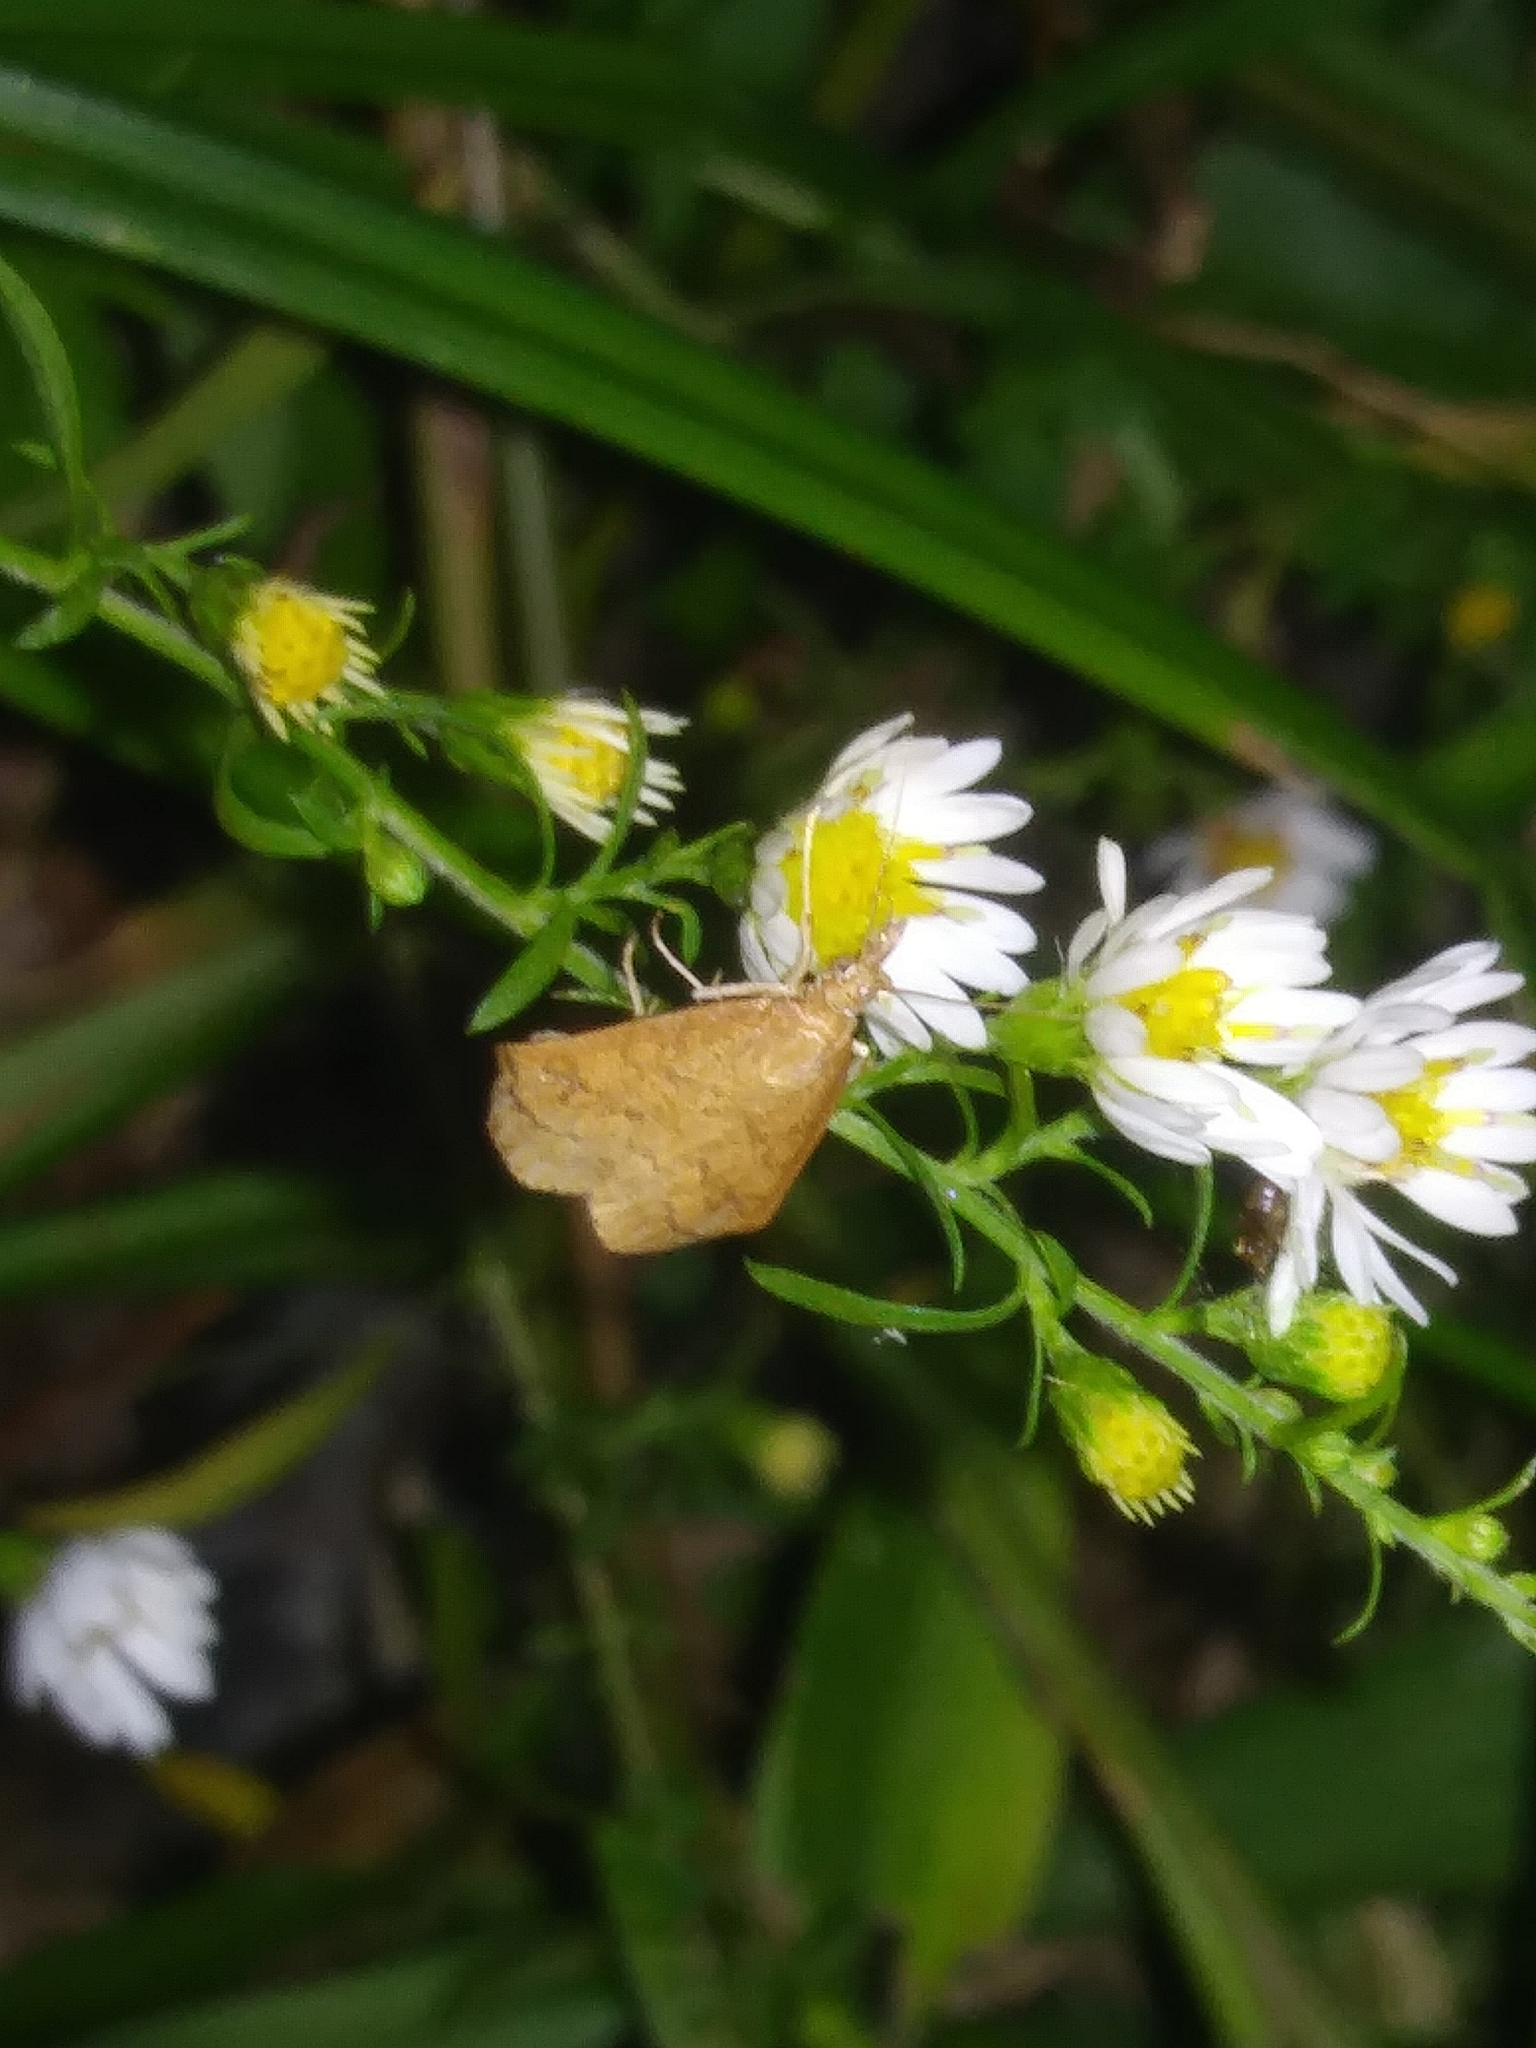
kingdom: Animalia
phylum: Arthropoda
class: Insecta
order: Lepidoptera
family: Crambidae
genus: Udea
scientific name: Udea rubigalis
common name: Celery leaftier moth
